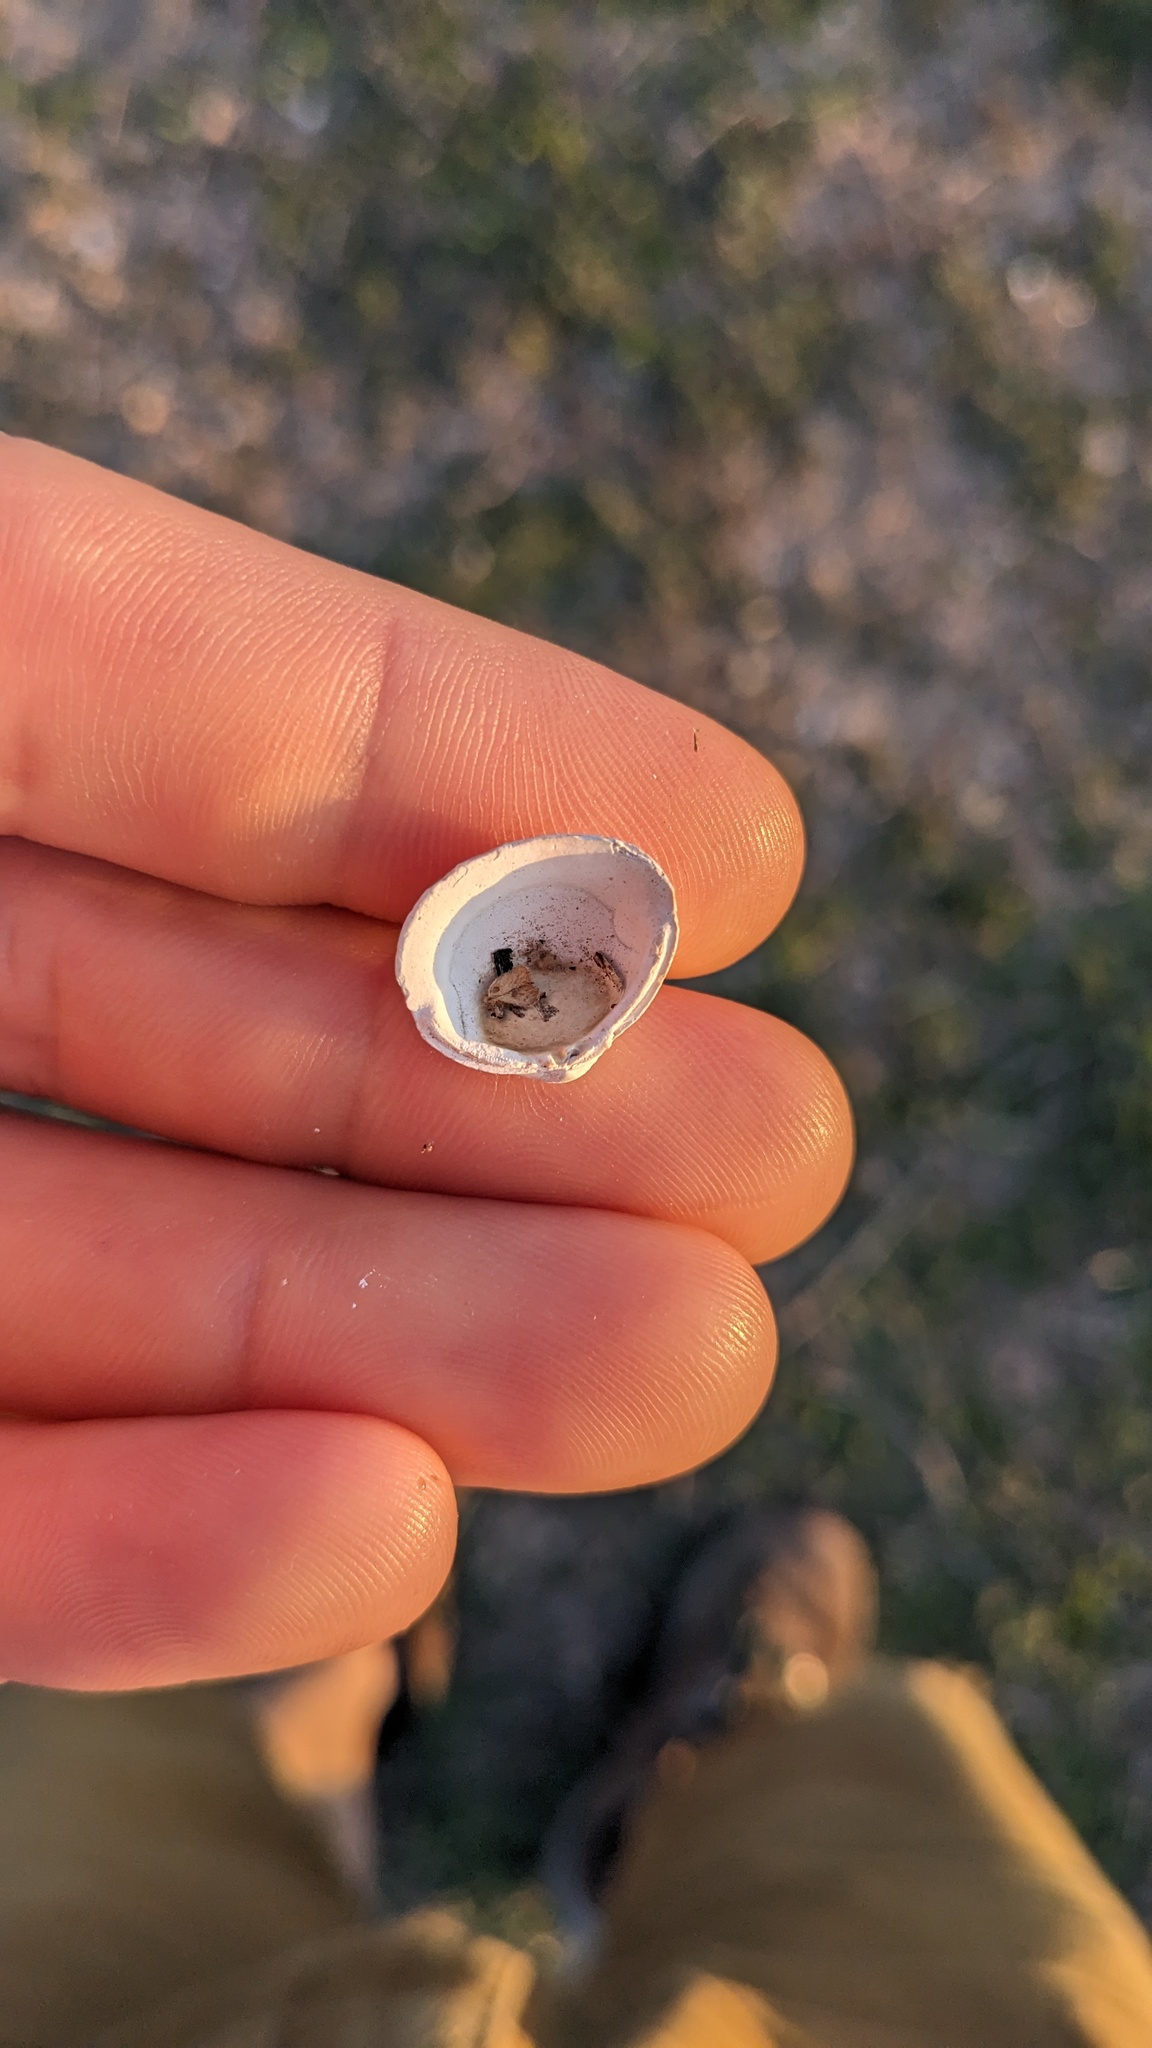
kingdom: Animalia
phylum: Mollusca
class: Bivalvia
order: Venerida
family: Cyrenidae
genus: Corbicula
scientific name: Corbicula fluminea
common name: Asian clam
